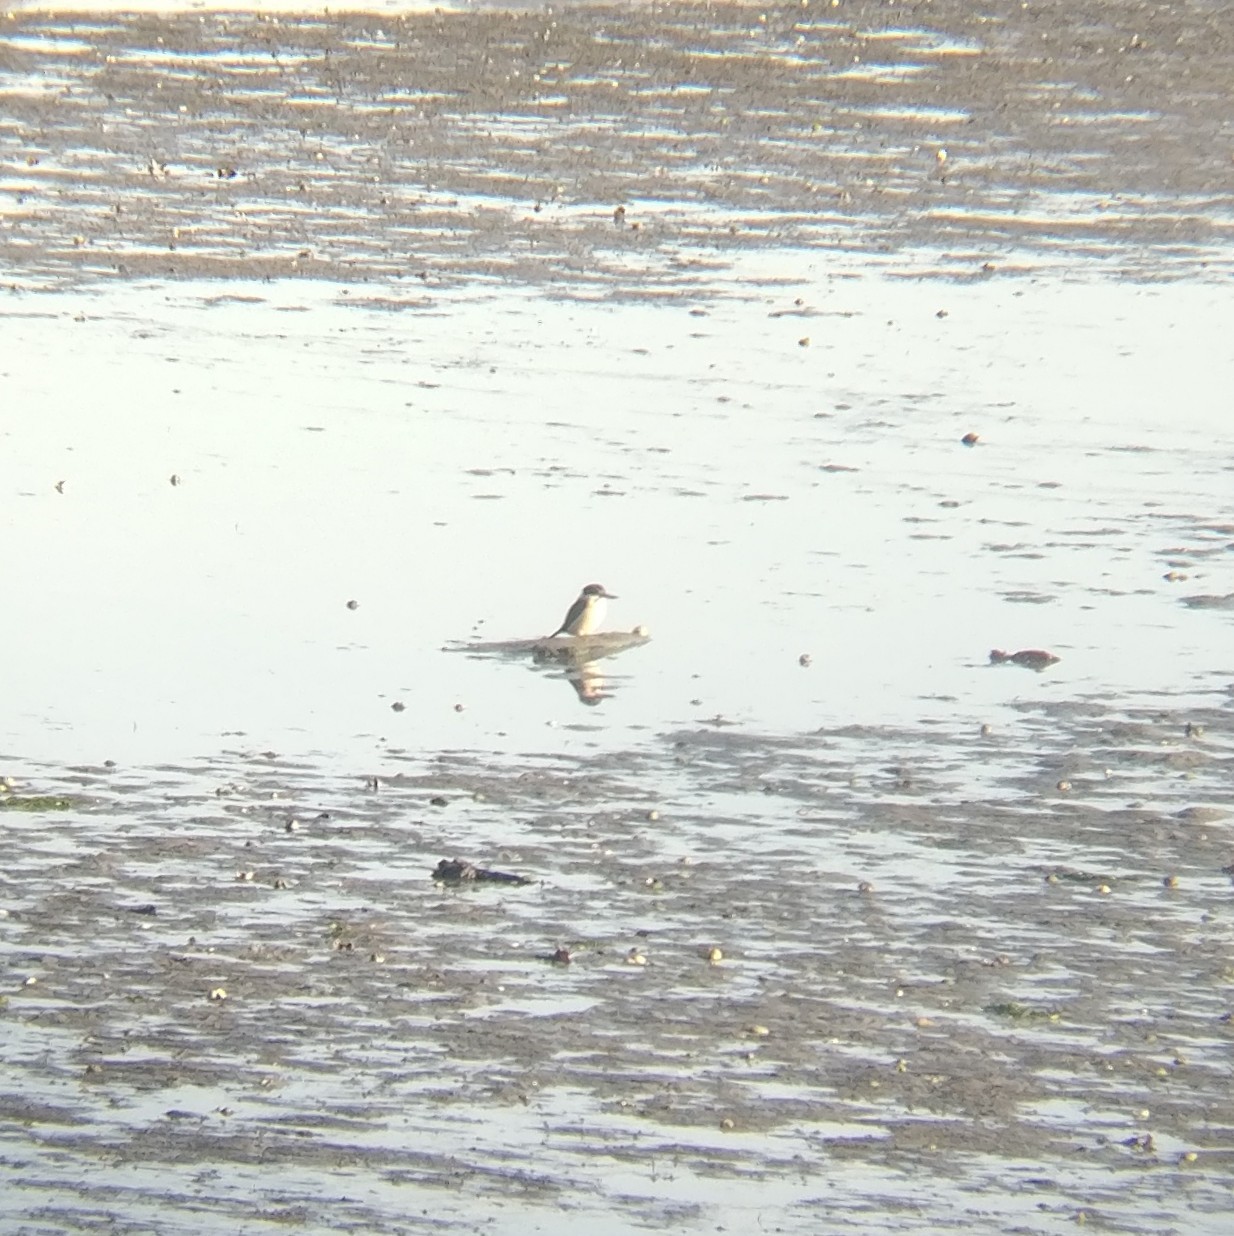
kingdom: Animalia
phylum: Chordata
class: Aves
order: Coraciiformes
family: Alcedinidae
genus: Todiramphus
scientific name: Todiramphus sanctus
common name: Sacred kingfisher
